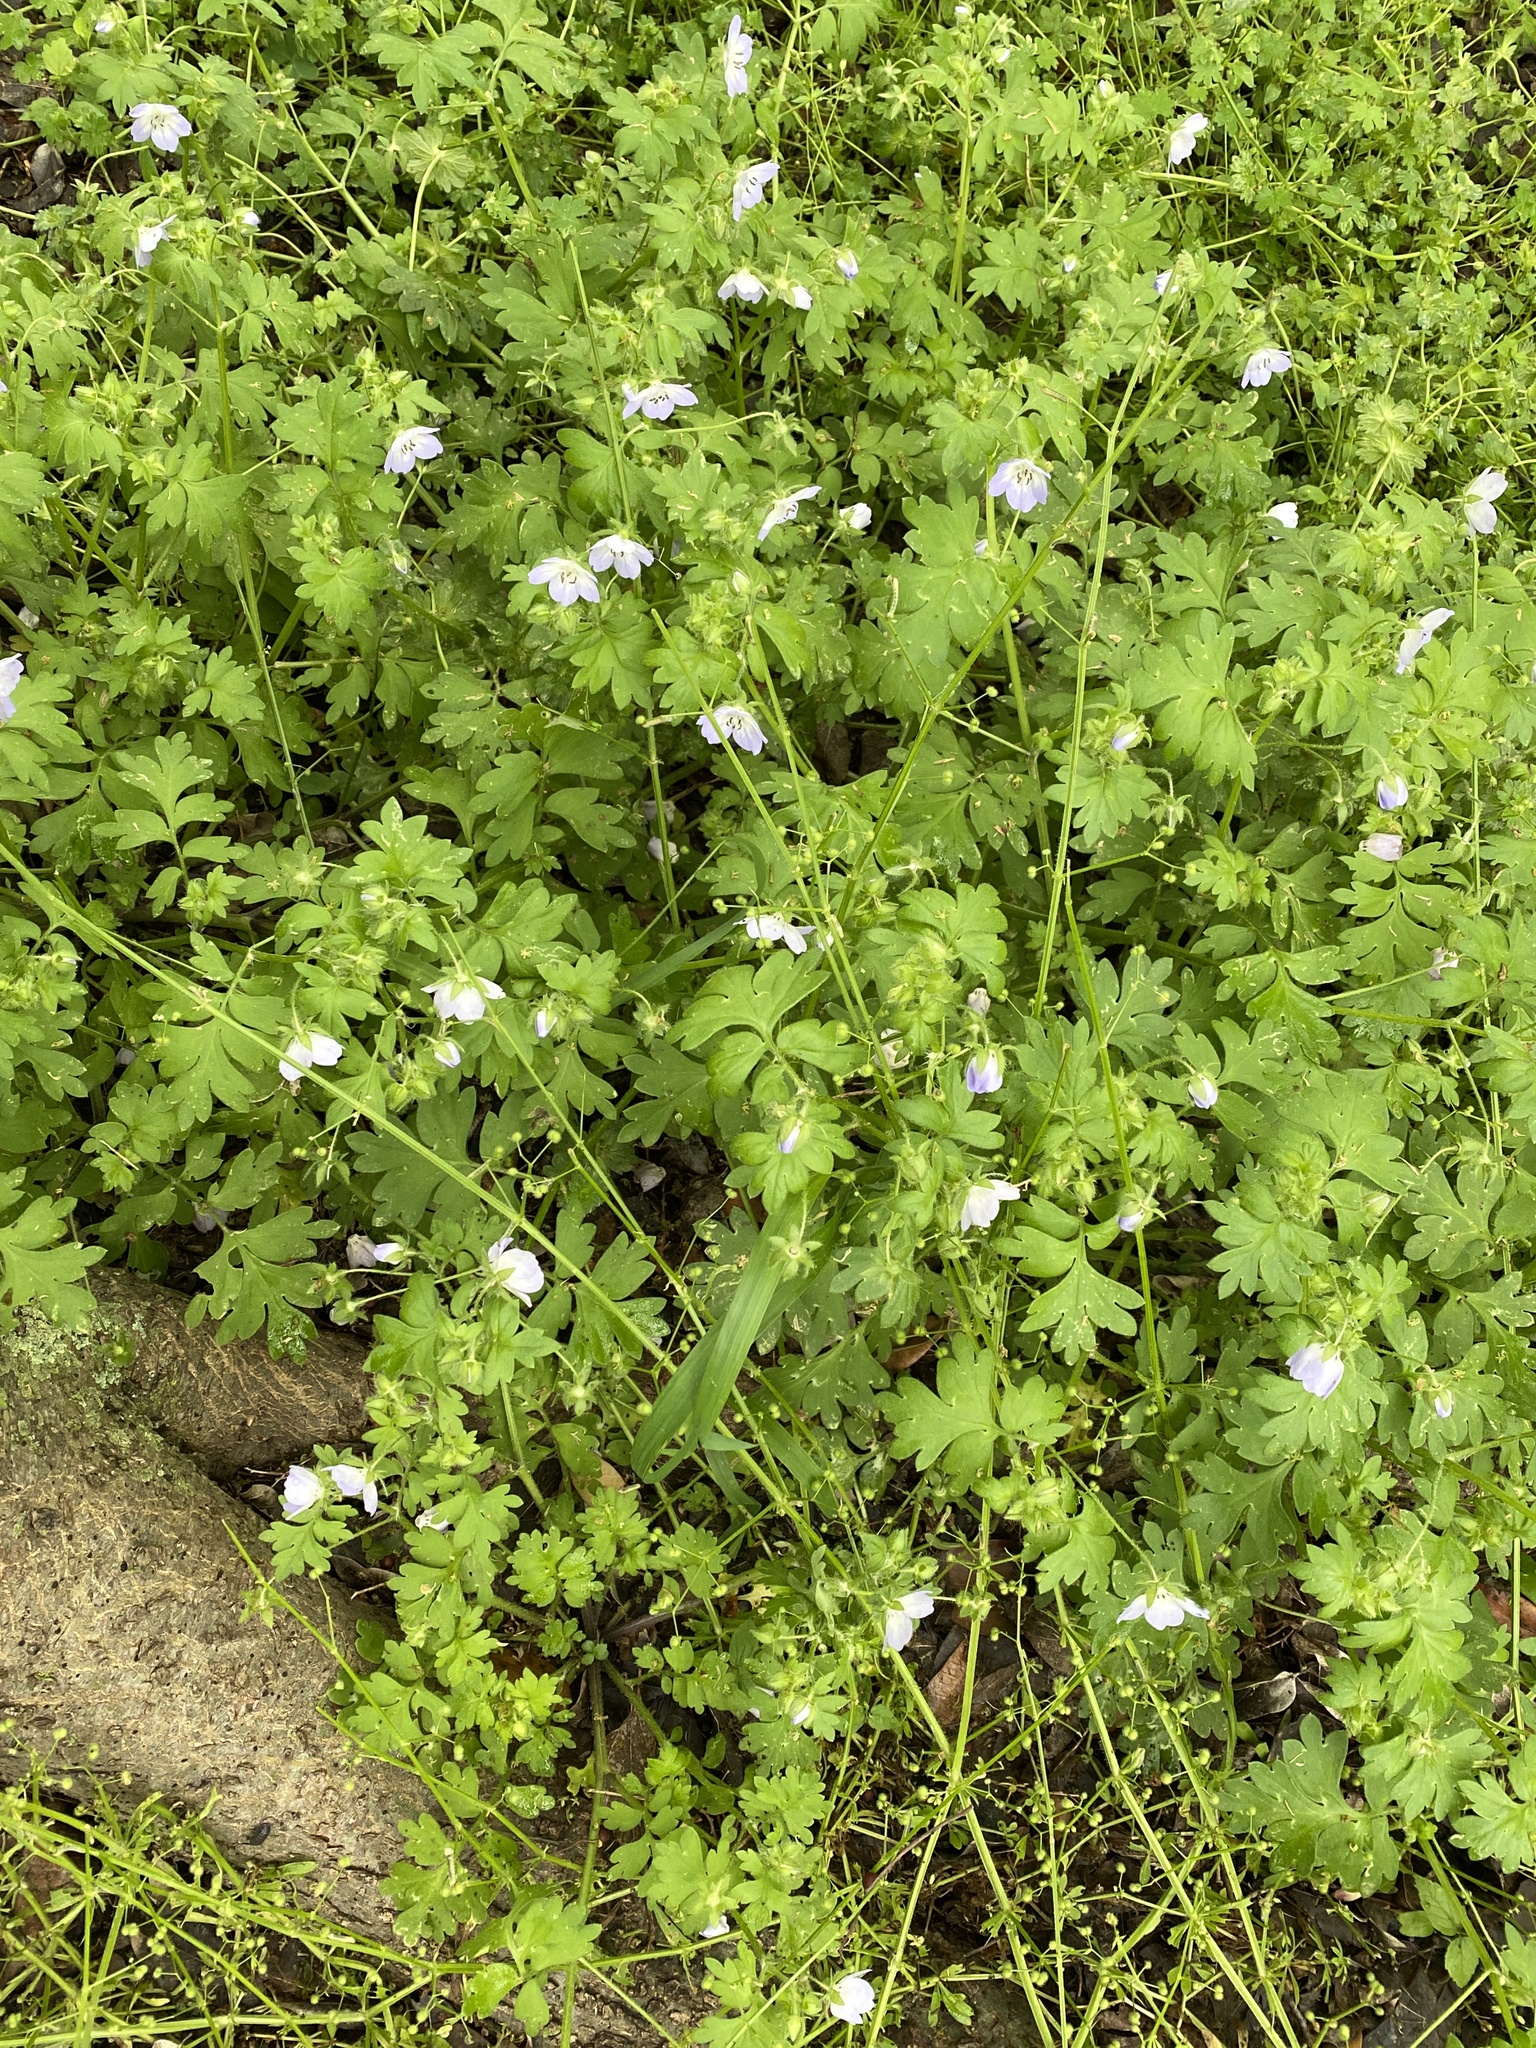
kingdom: Plantae
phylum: Tracheophyta
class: Magnoliopsida
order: Boraginales
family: Hydrophyllaceae
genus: Nemophila
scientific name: Nemophila phacelioides
